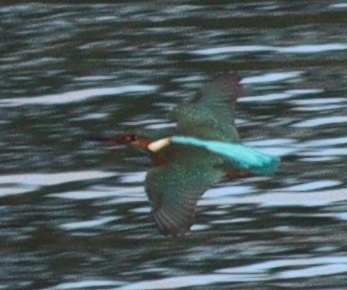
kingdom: Animalia
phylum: Chordata
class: Aves
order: Coraciiformes
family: Alcedinidae
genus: Alcedo
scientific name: Alcedo atthis
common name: Common kingfisher
